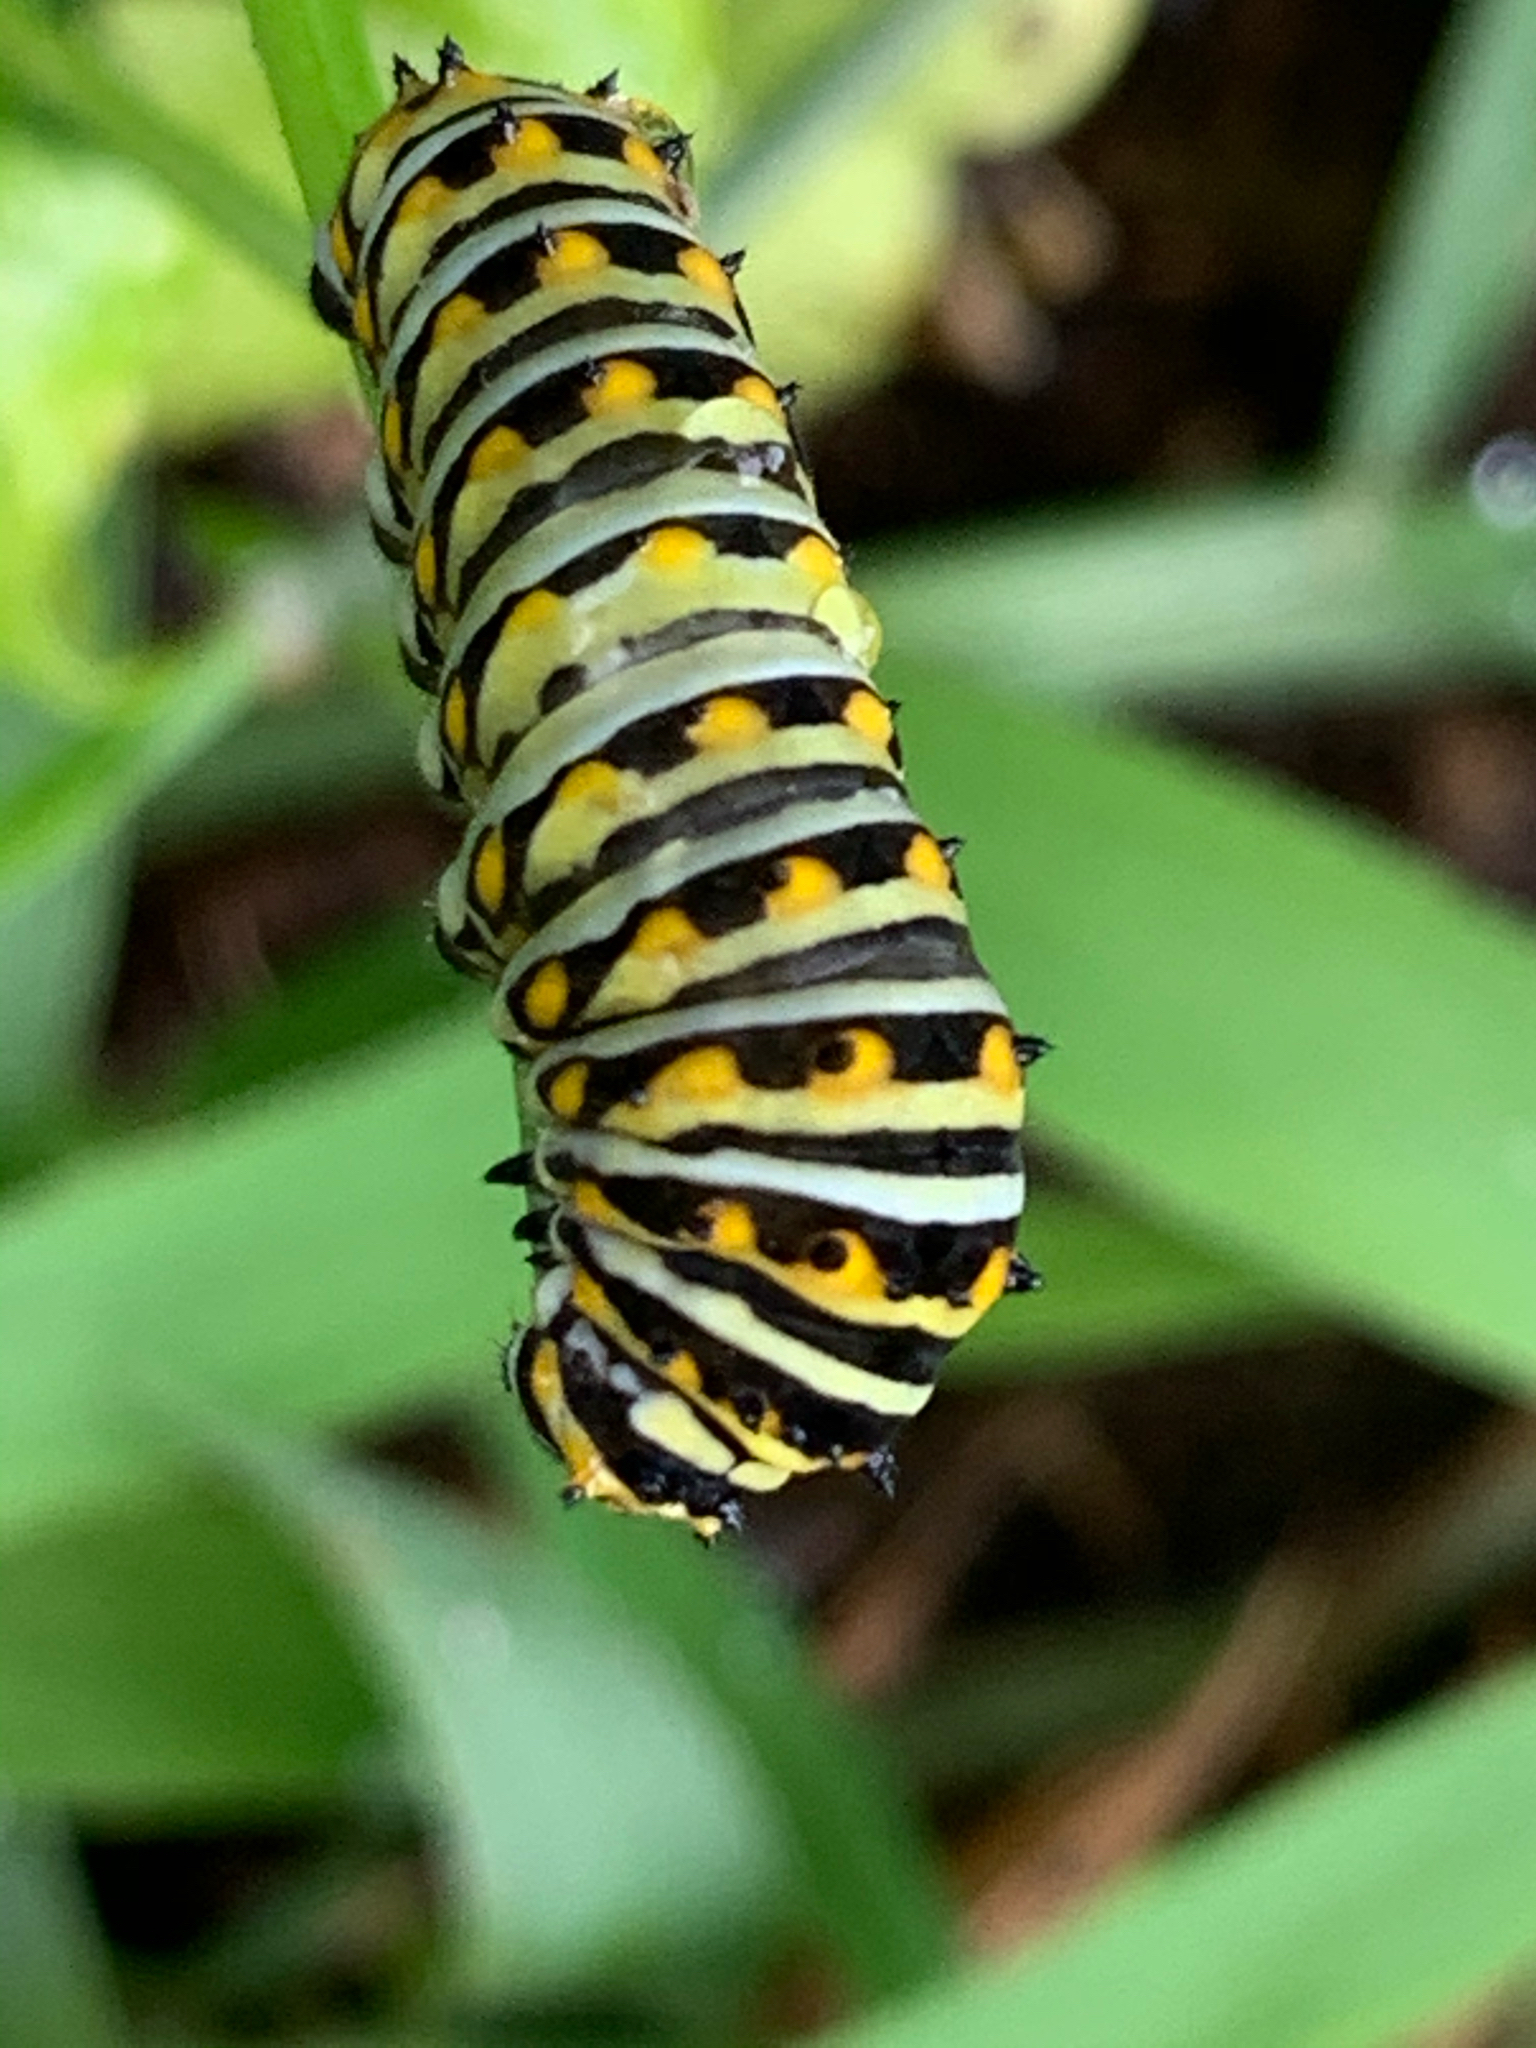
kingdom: Animalia
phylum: Arthropoda
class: Insecta
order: Lepidoptera
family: Papilionidae
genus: Papilio
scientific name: Papilio polyxenes
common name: Black swallowtail
